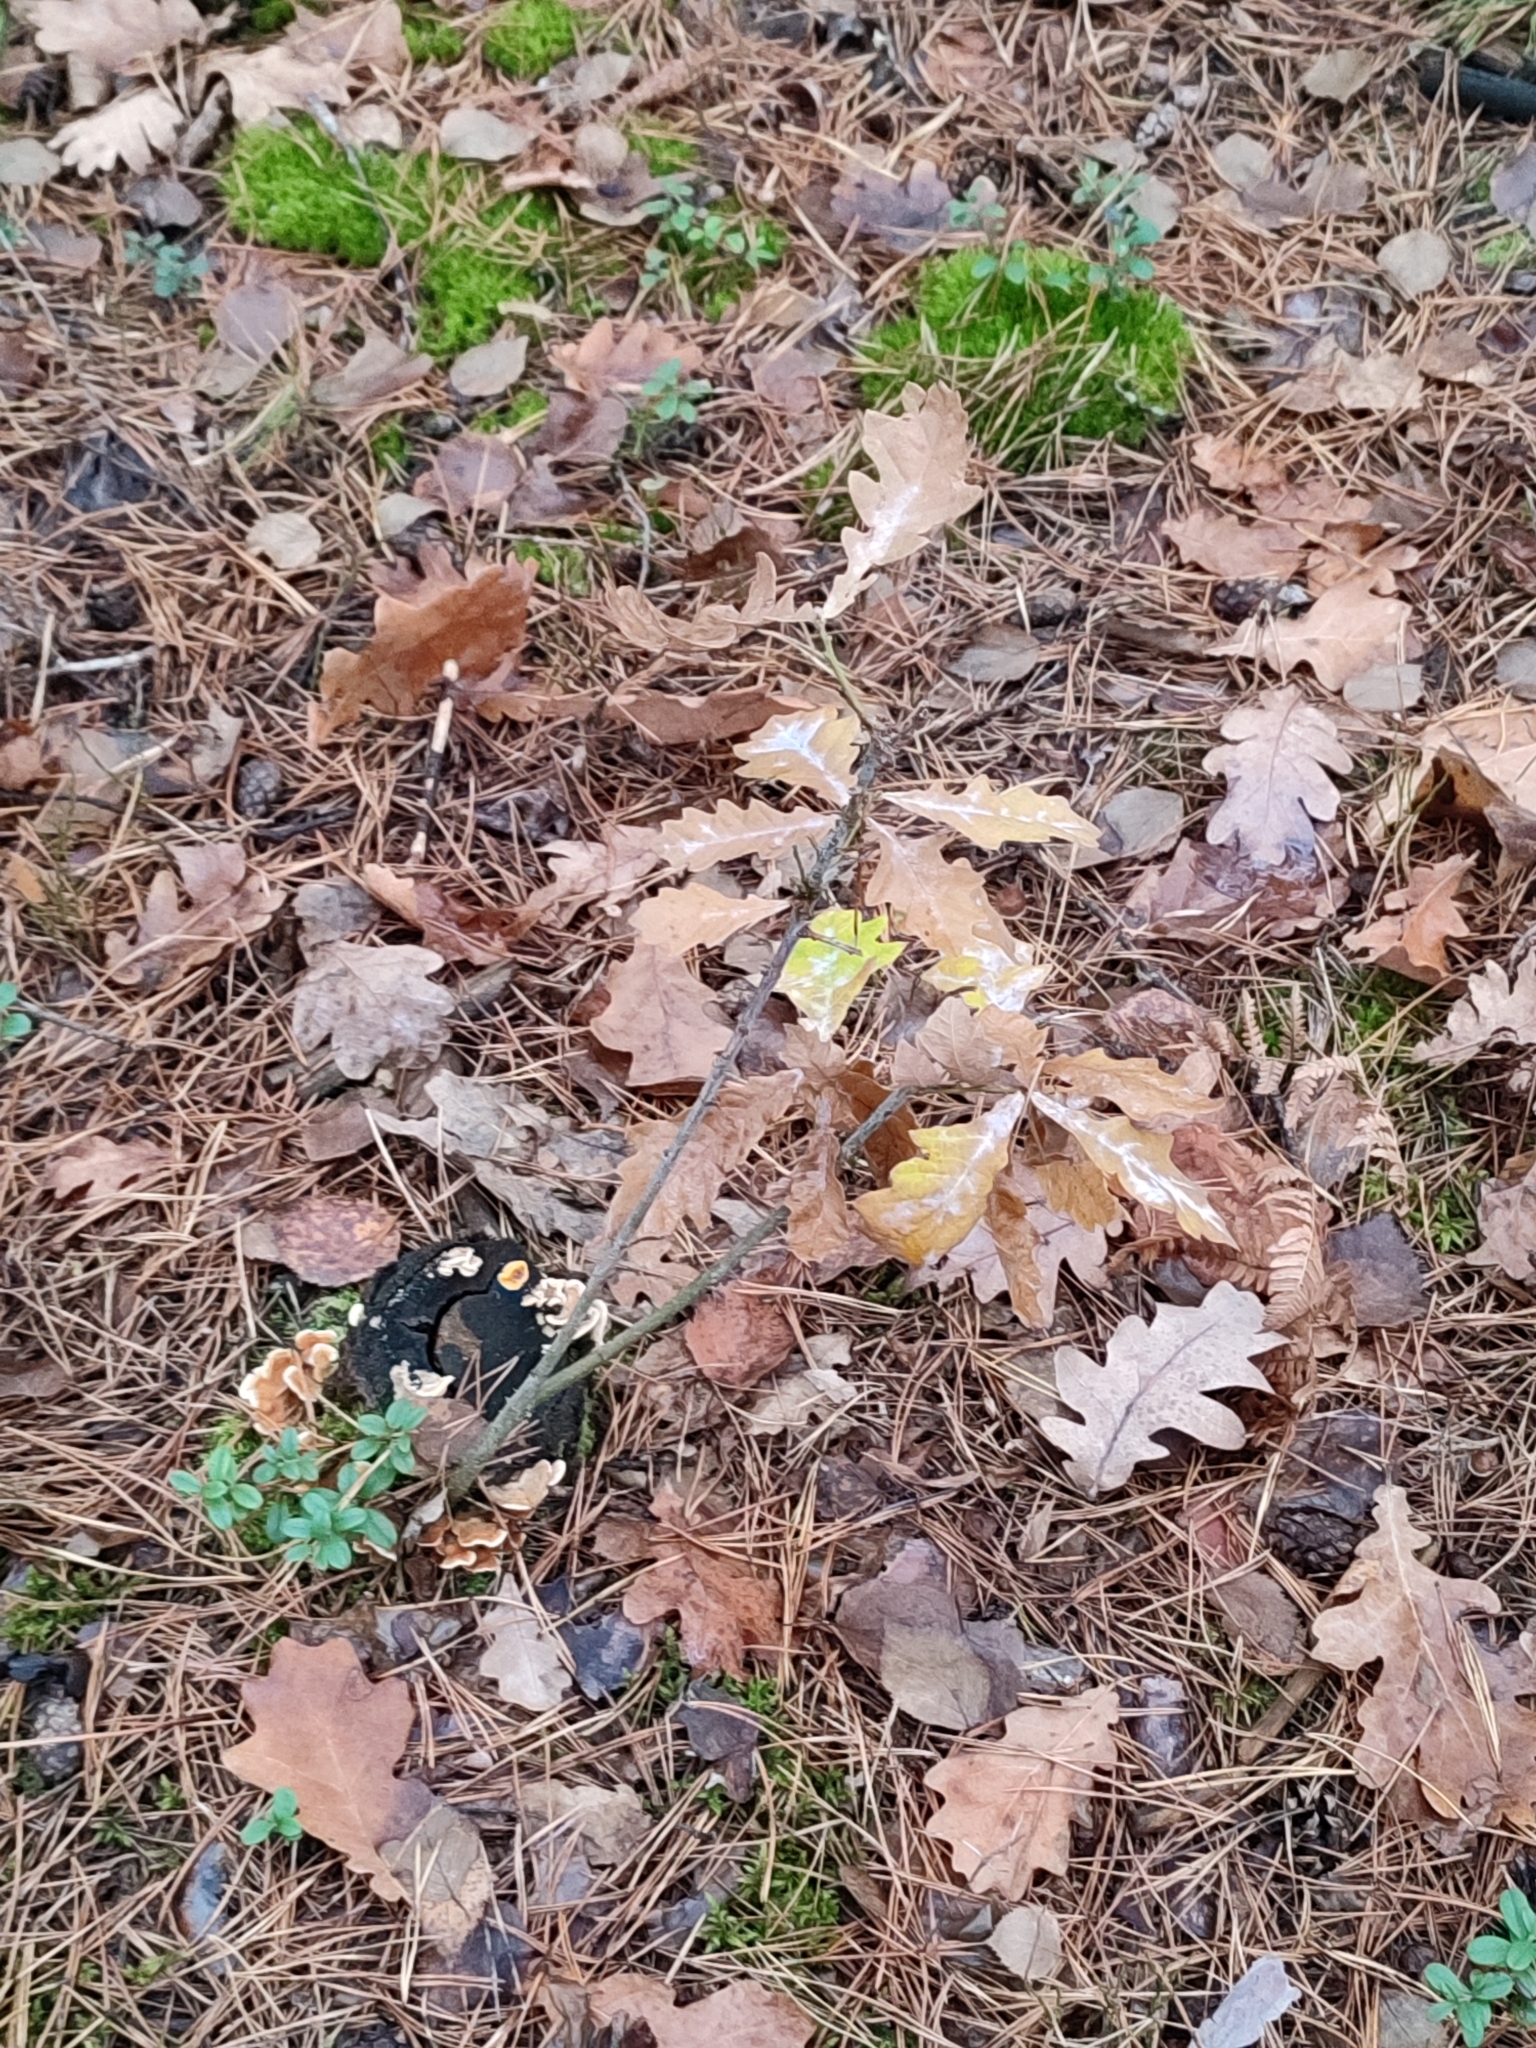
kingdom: Plantae
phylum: Tracheophyta
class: Magnoliopsida
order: Fagales
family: Fagaceae
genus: Quercus
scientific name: Quercus robur
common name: Pedunculate oak
